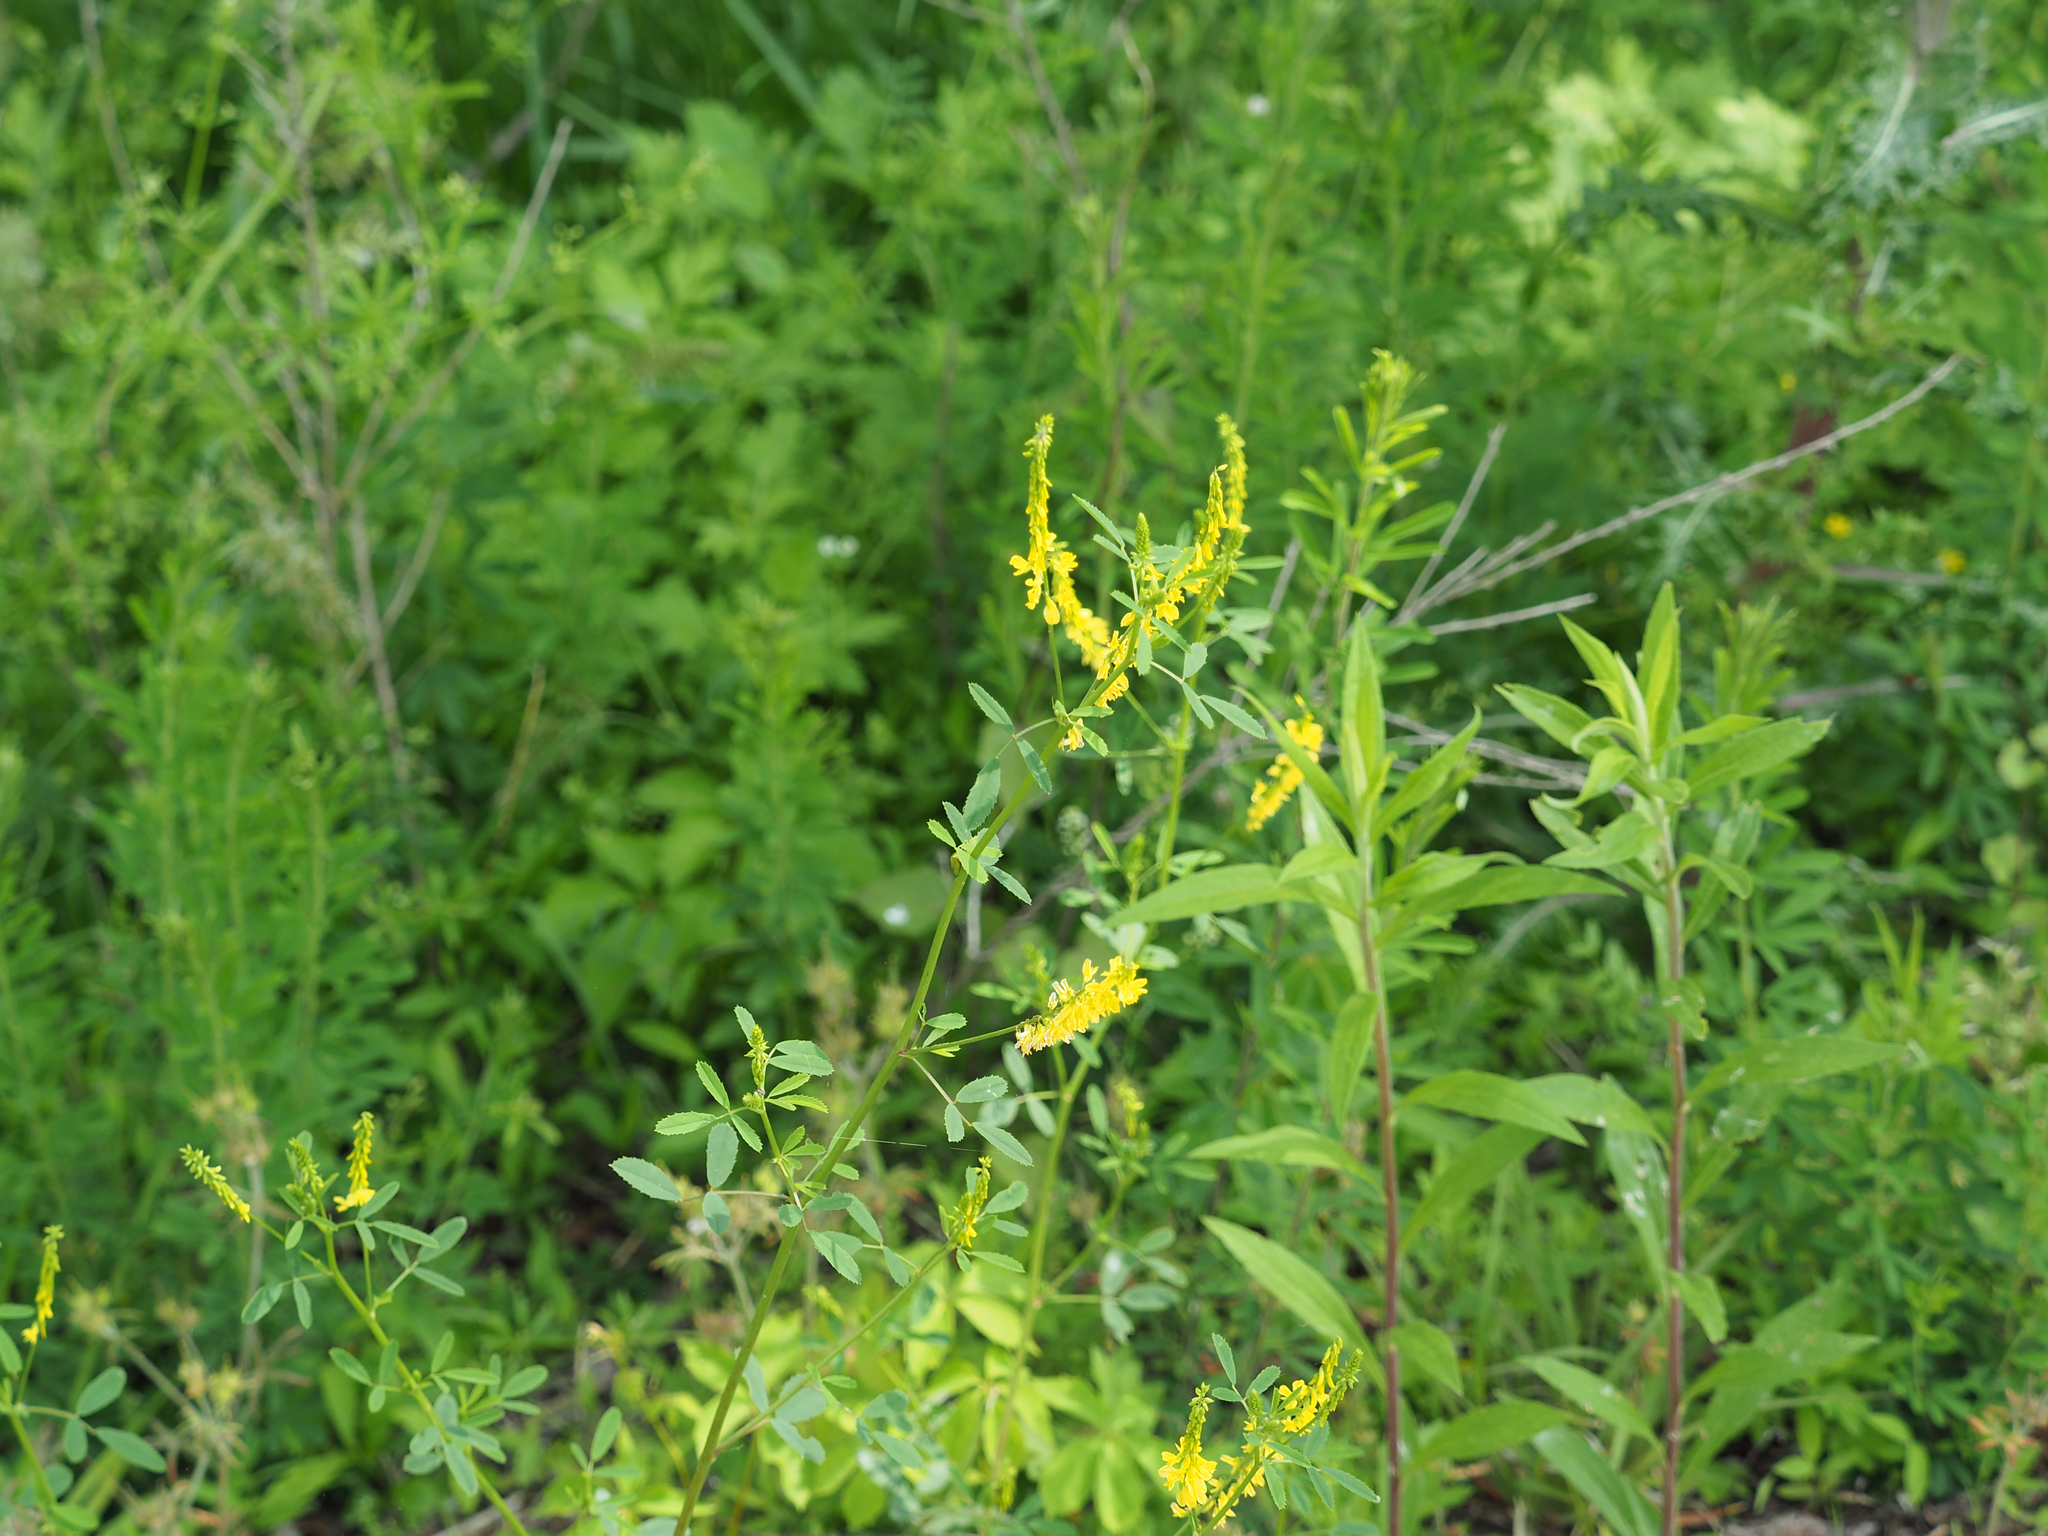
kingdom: Plantae
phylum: Tracheophyta
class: Magnoliopsida
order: Fabales
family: Fabaceae
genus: Melilotus
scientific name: Melilotus officinalis
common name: Sweetclover
